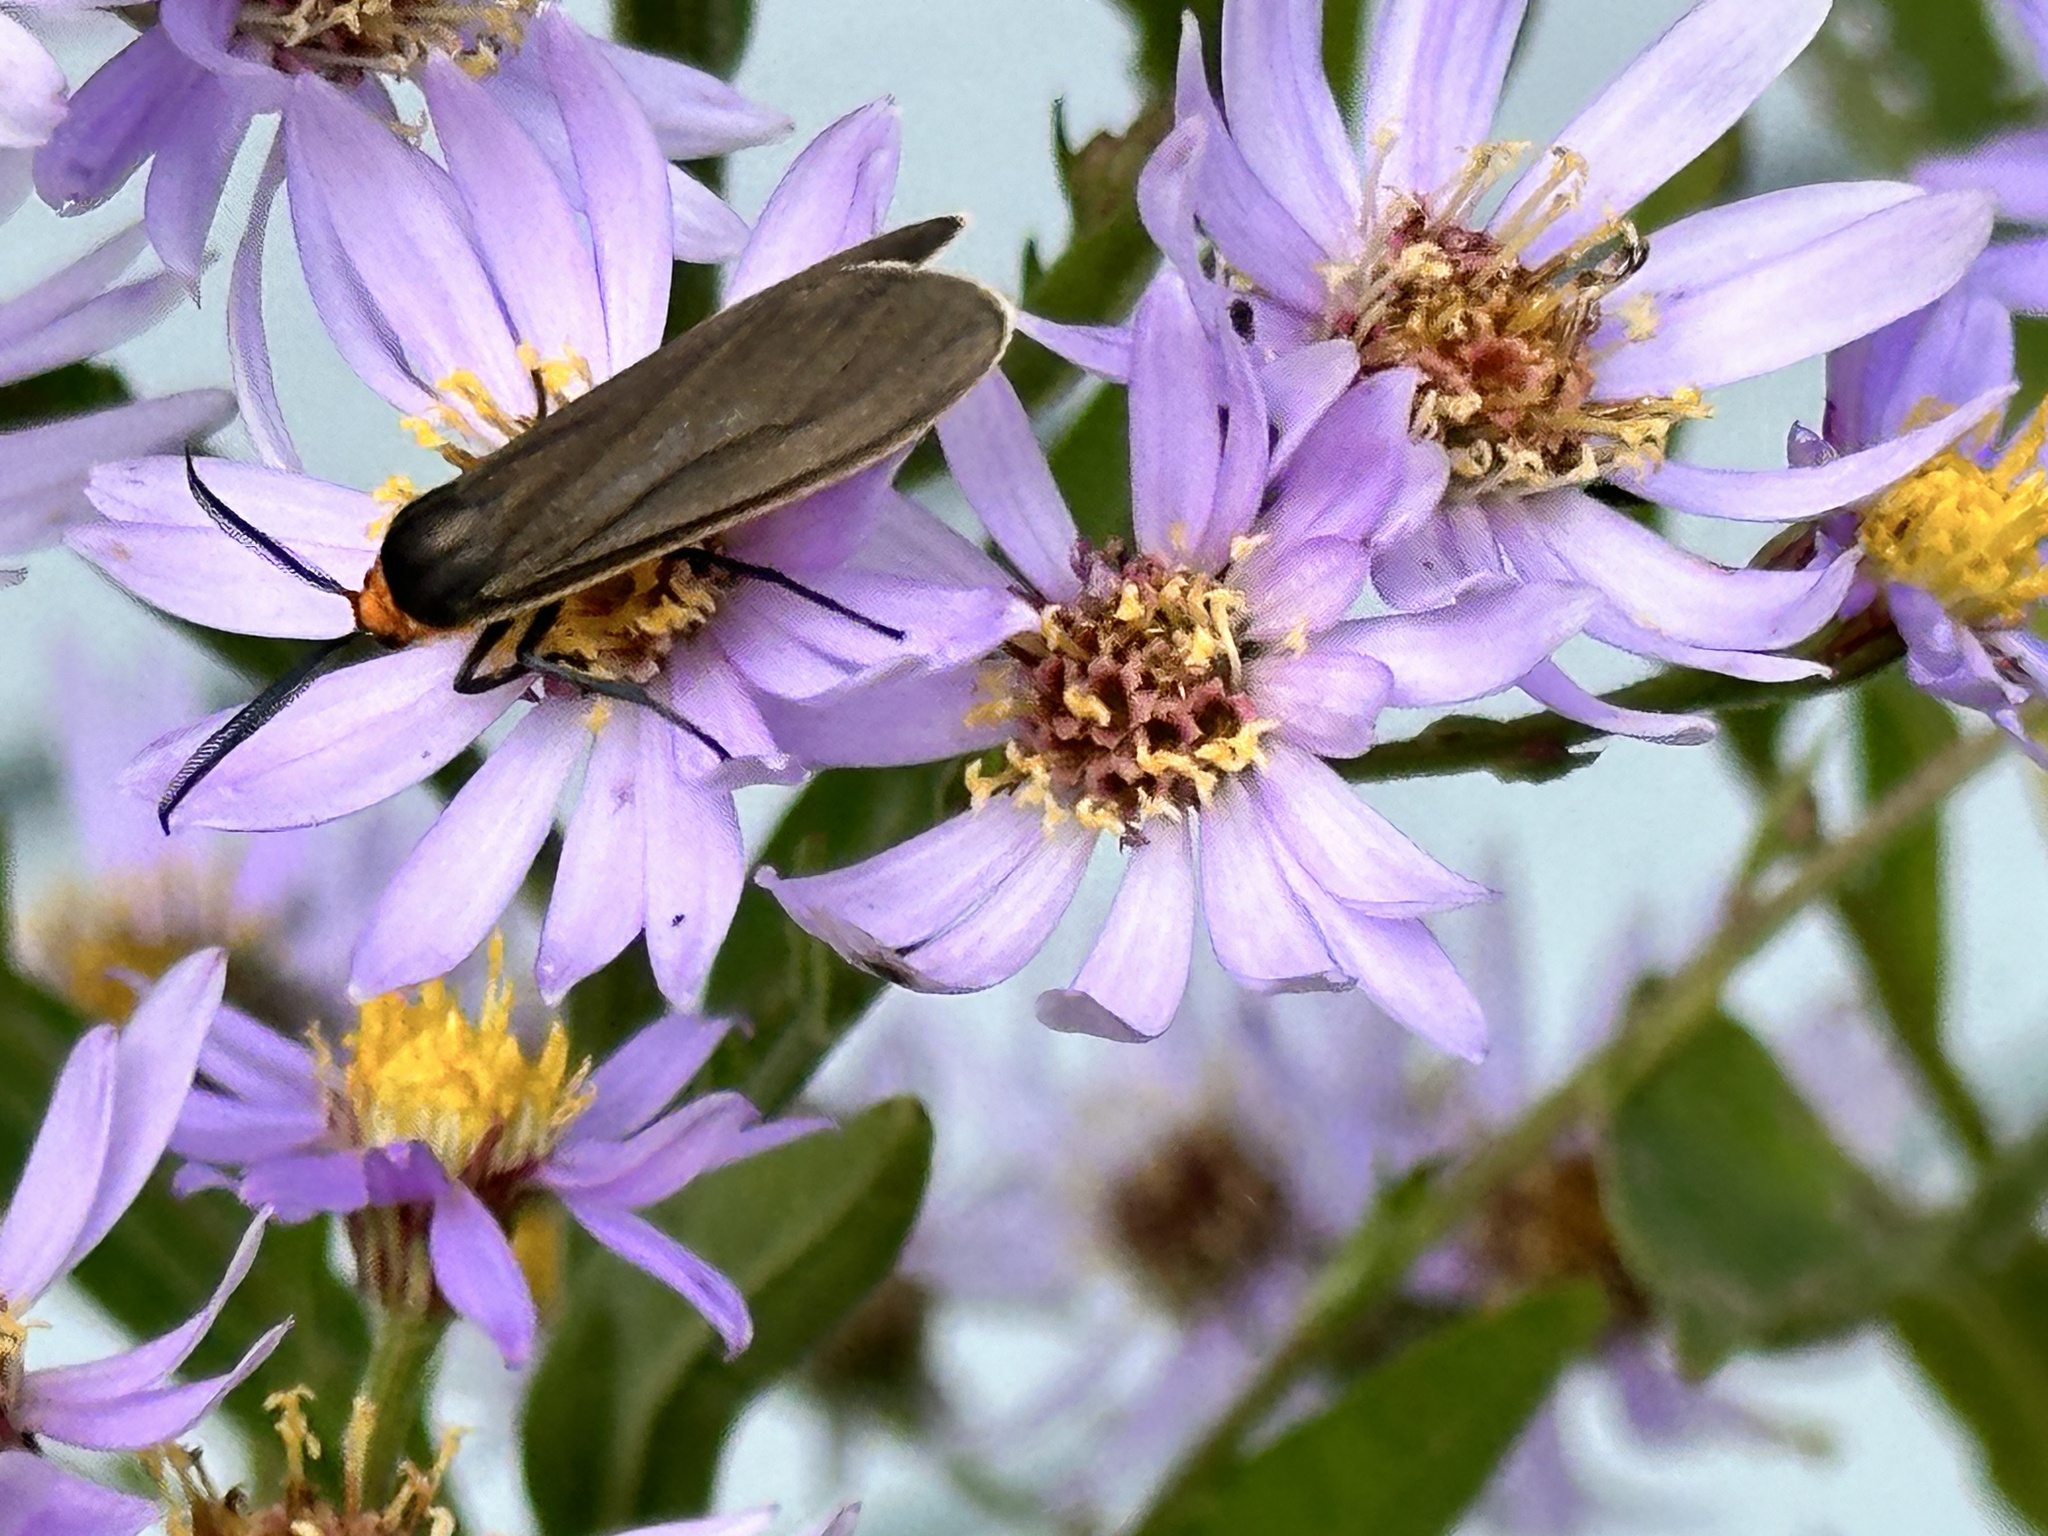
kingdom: Animalia
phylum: Arthropoda
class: Insecta
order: Lepidoptera
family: Erebidae
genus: Cisseps
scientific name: Cisseps fulvicollis
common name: Yellow-collared scape moth
